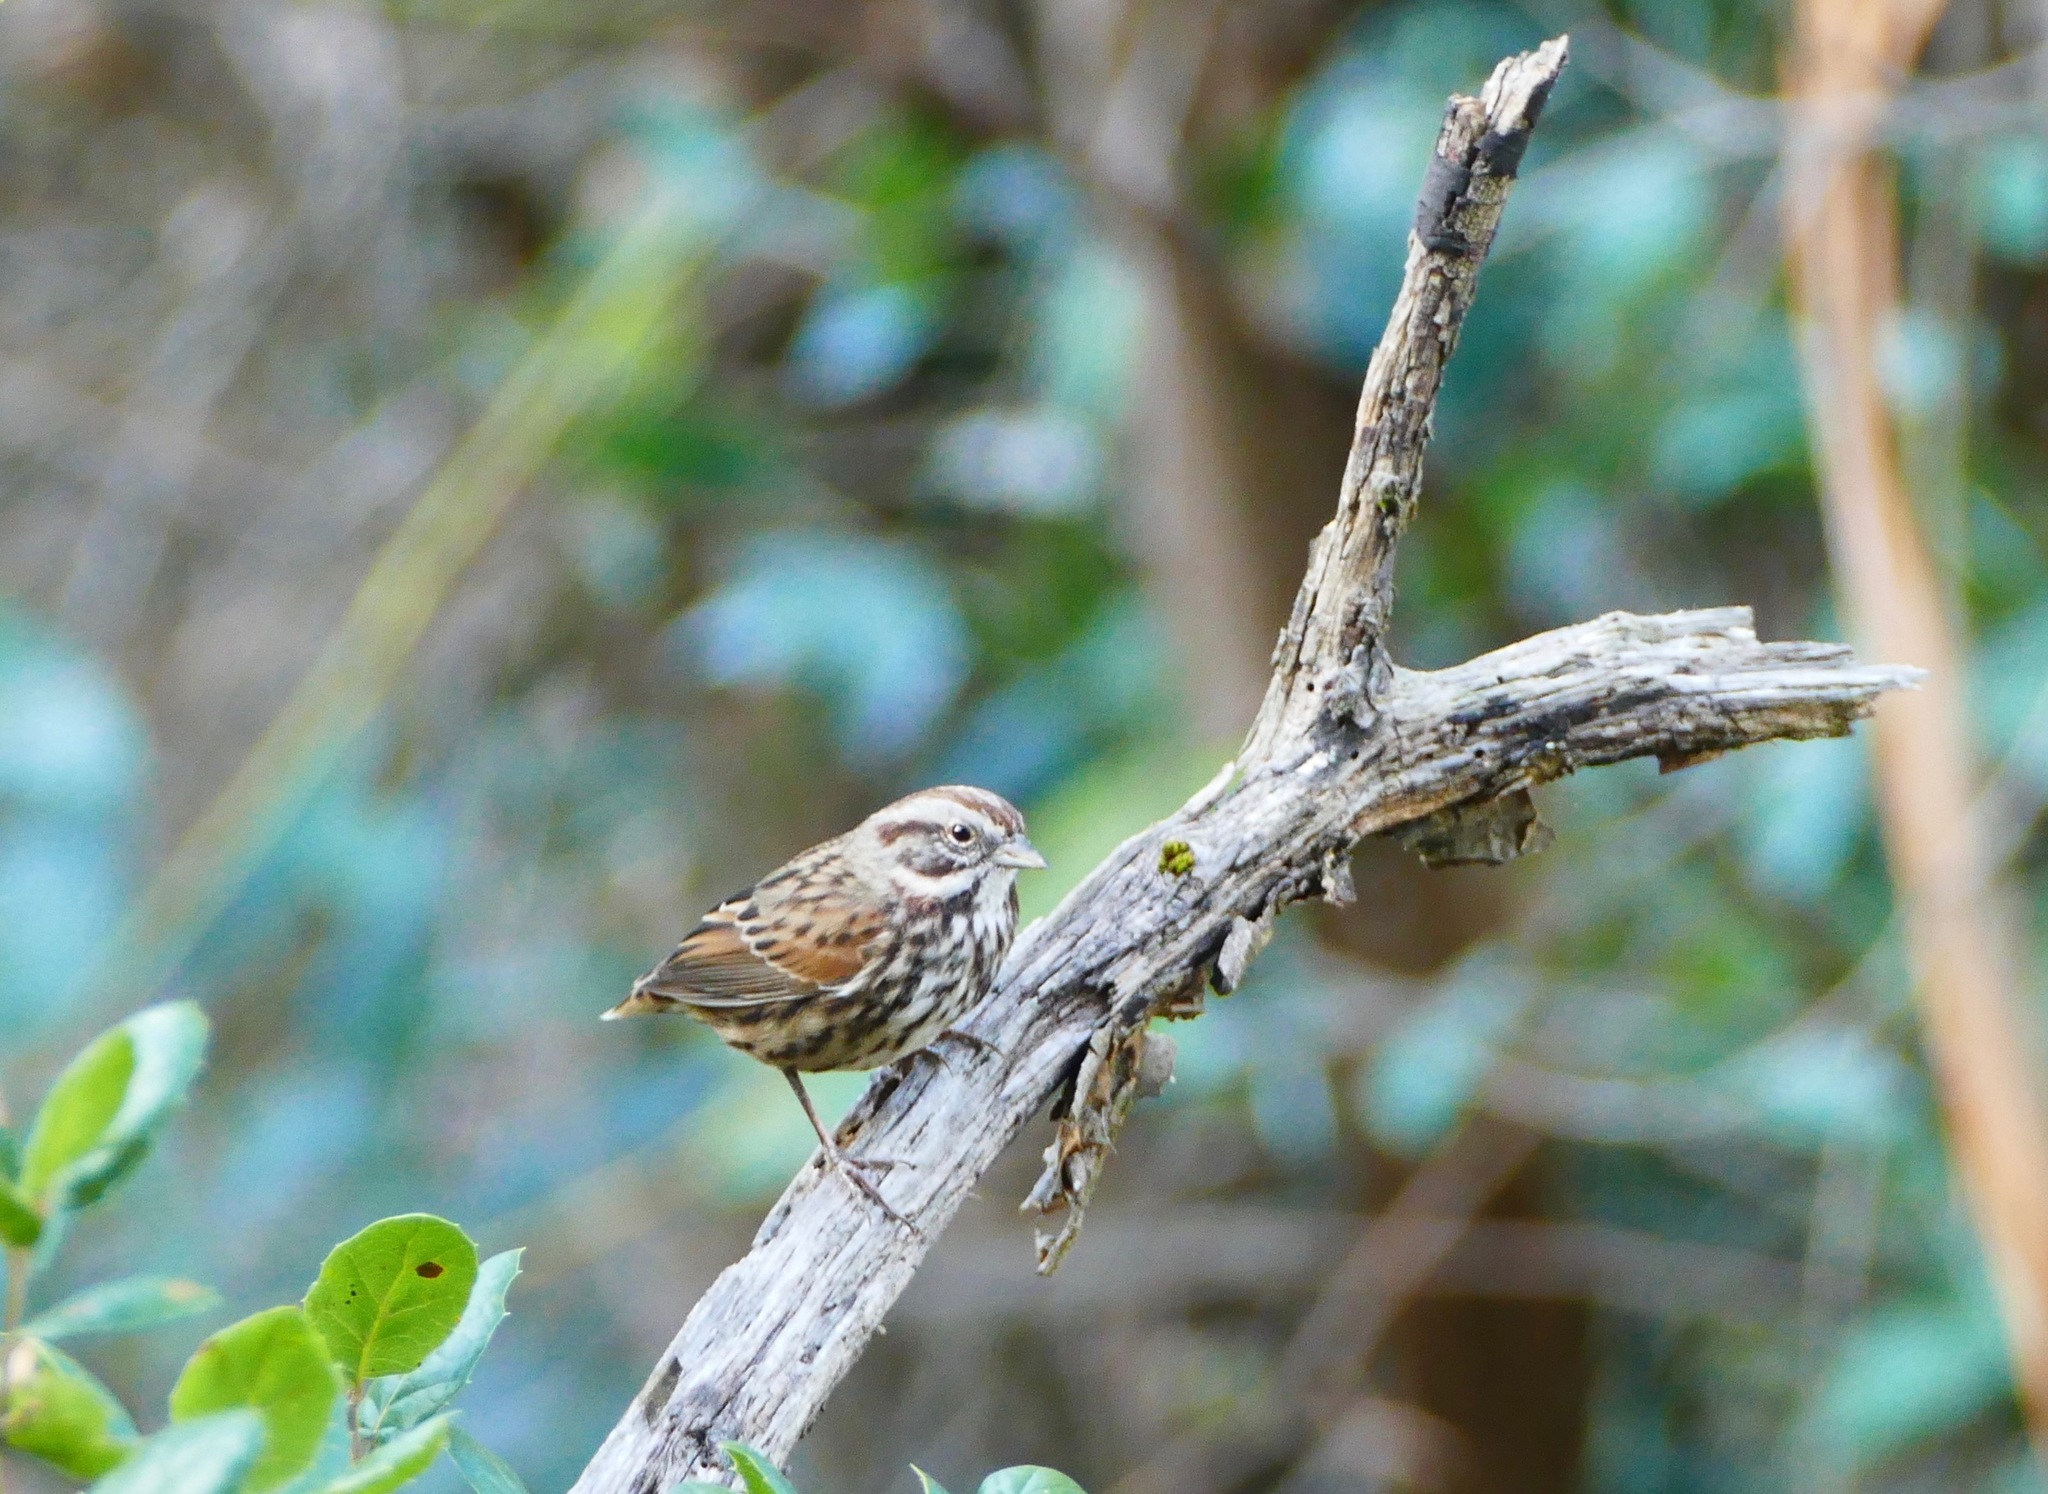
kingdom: Animalia
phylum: Chordata
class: Aves
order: Passeriformes
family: Passerellidae
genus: Melospiza
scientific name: Melospiza melodia
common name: Song sparrow
